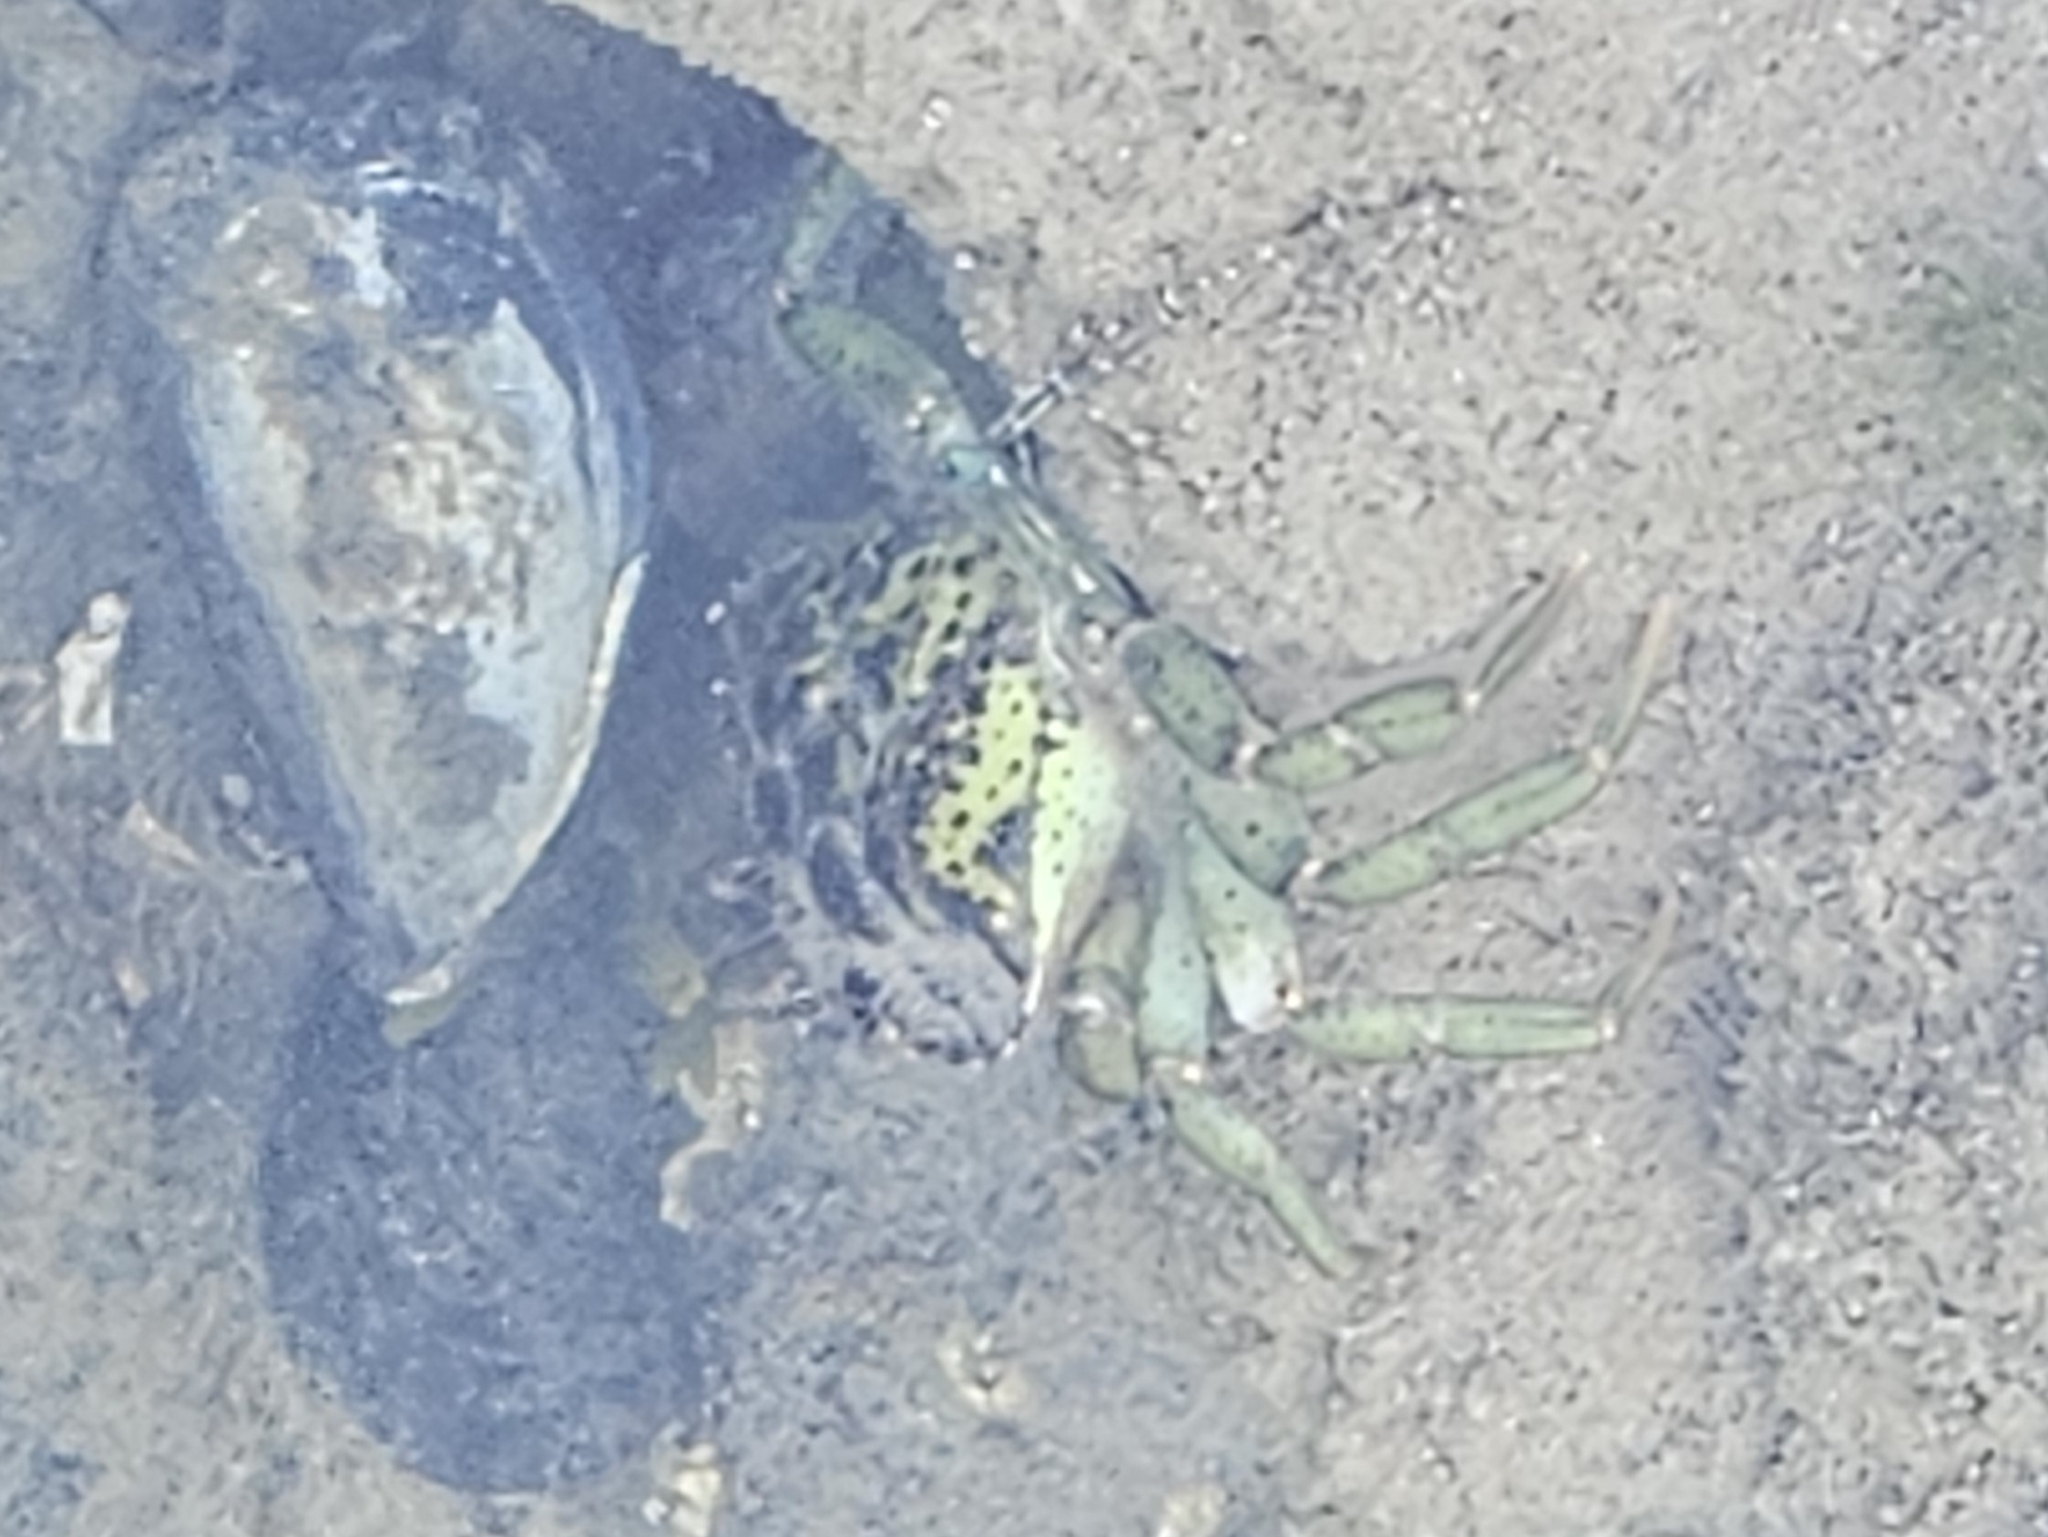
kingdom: Animalia
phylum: Arthropoda
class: Malacostraca
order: Decapoda
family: Carcinidae
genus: Carcinus
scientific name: Carcinus maenas
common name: European green crab
